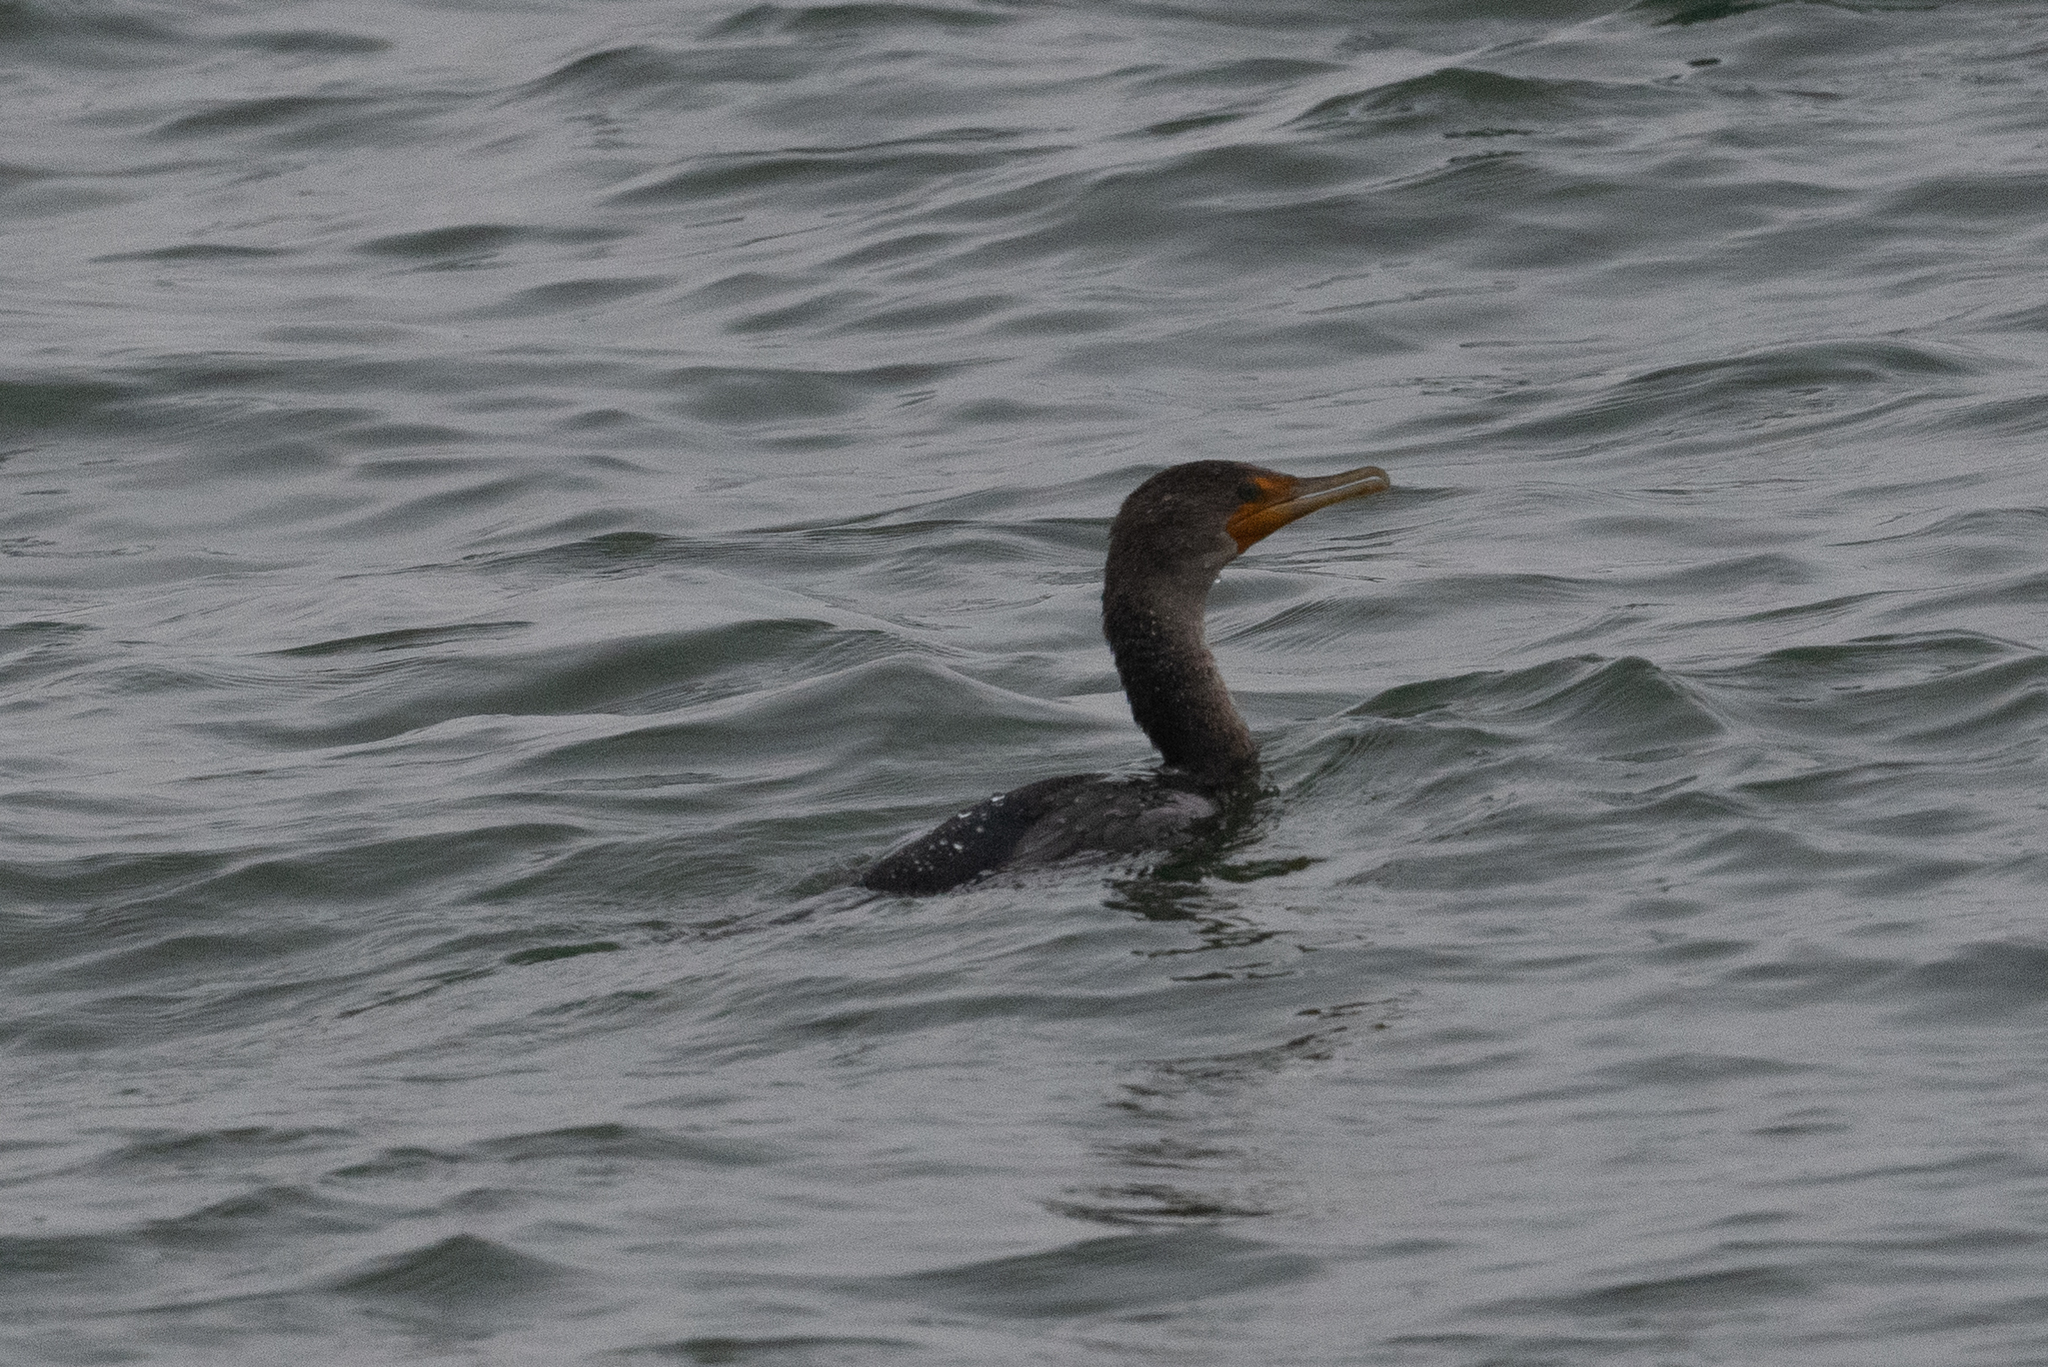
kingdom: Animalia
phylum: Chordata
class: Aves
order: Suliformes
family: Phalacrocoracidae
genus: Phalacrocorax
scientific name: Phalacrocorax auritus
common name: Double-crested cormorant
